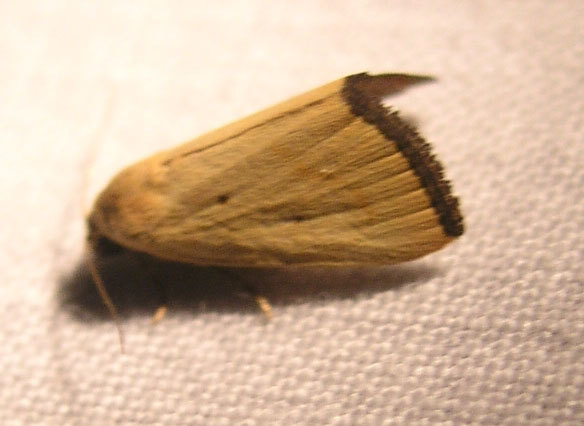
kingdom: Animalia
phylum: Arthropoda
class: Insecta
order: Lepidoptera
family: Noctuidae
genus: Marimatha
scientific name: Marimatha nigrofimbria
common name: Black-bordered lemon moth
